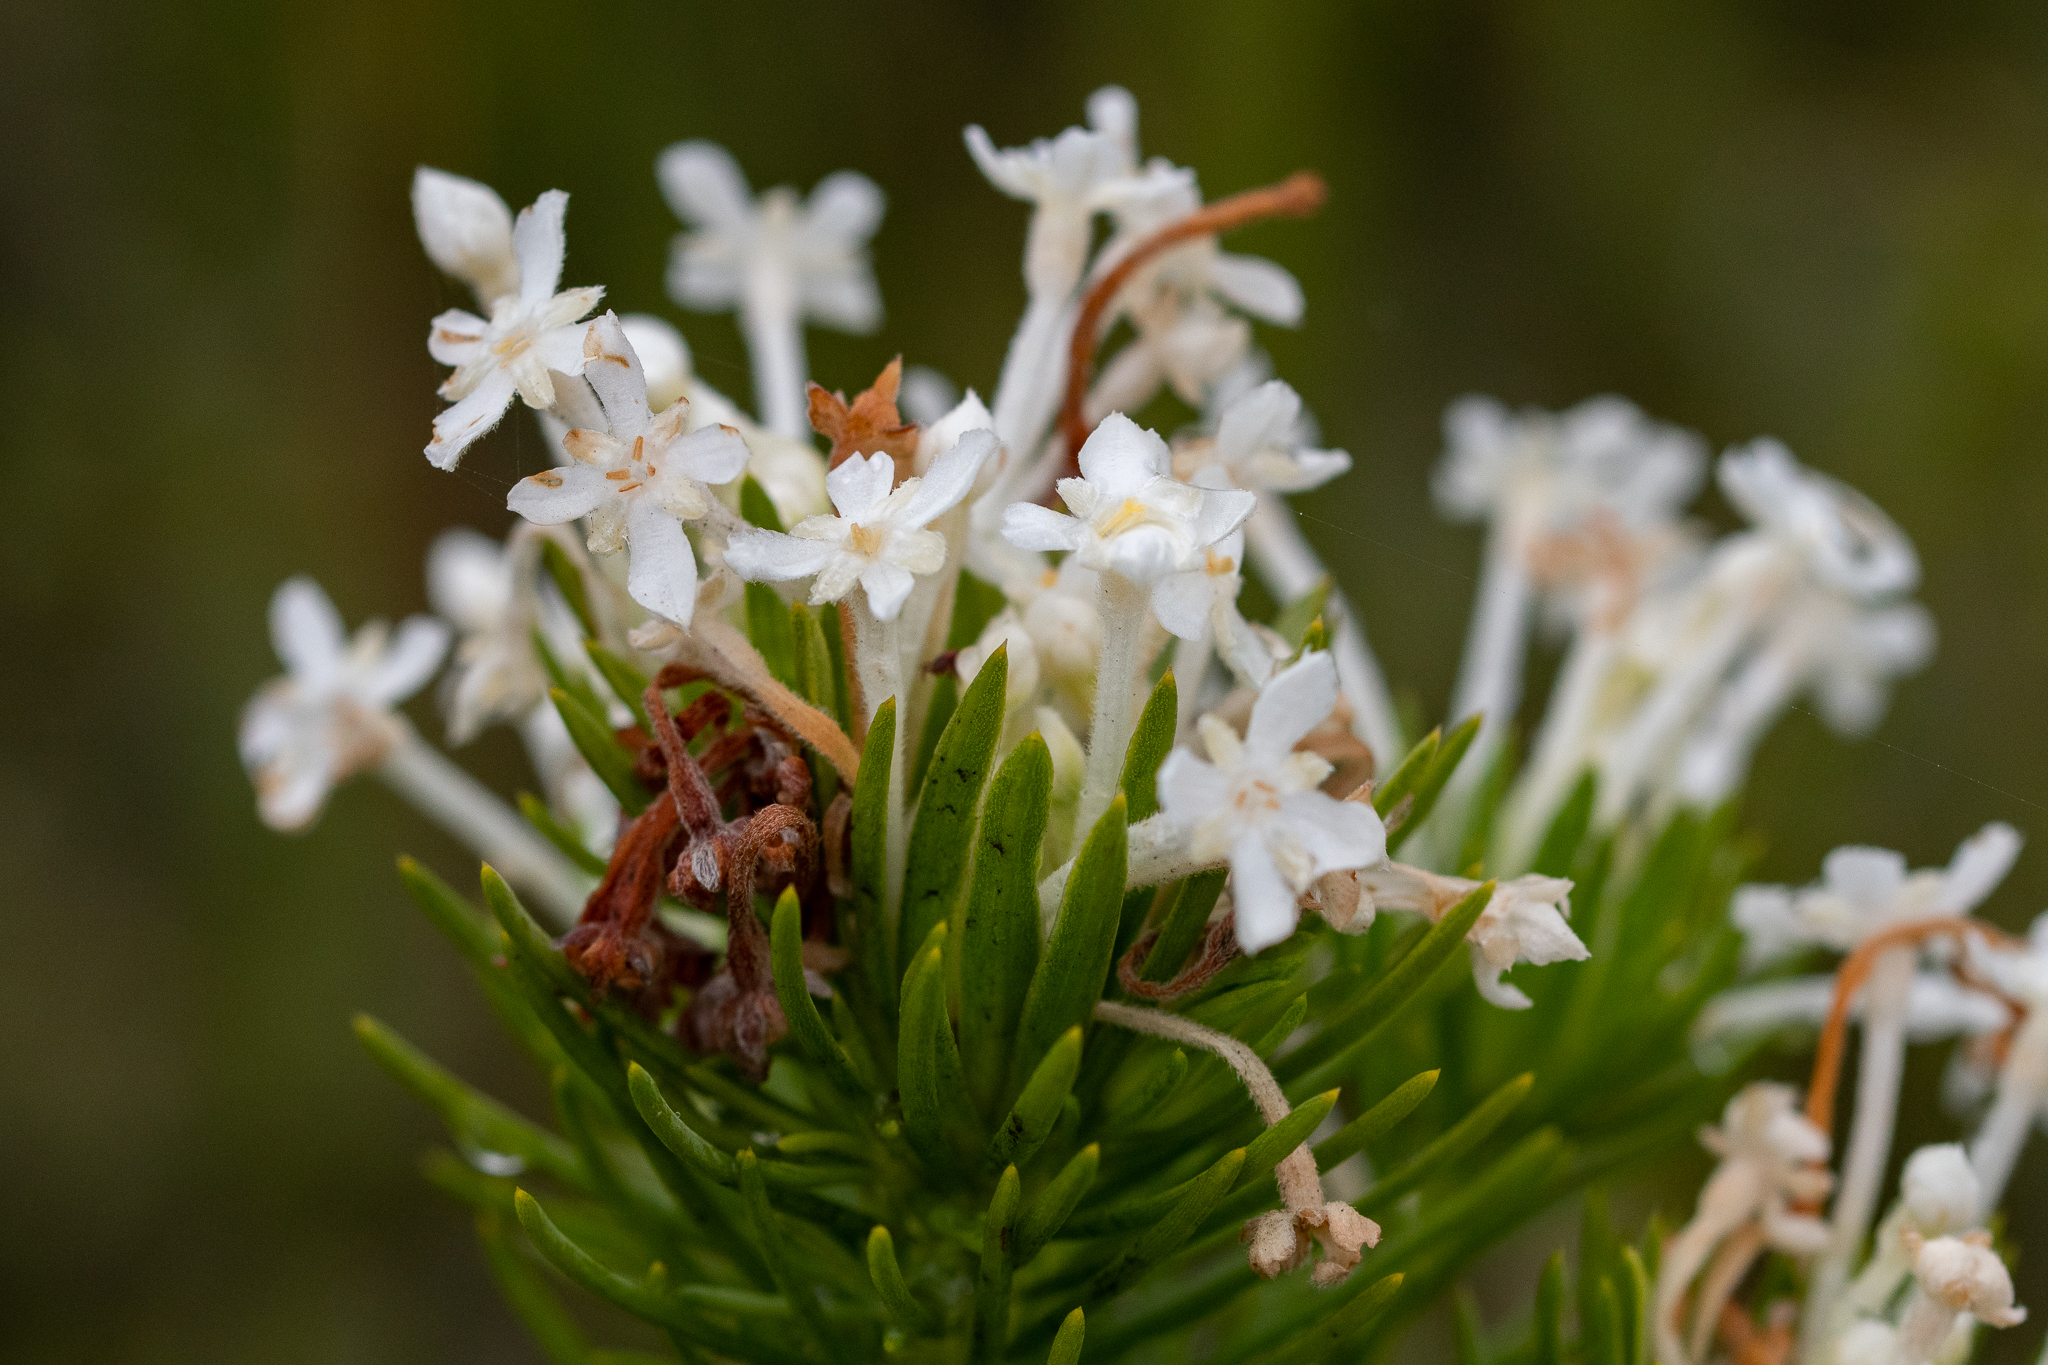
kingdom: Plantae
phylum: Tracheophyta
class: Magnoliopsida
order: Malvales
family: Thymelaeaceae
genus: Gnidia
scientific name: Gnidia pinifolia
